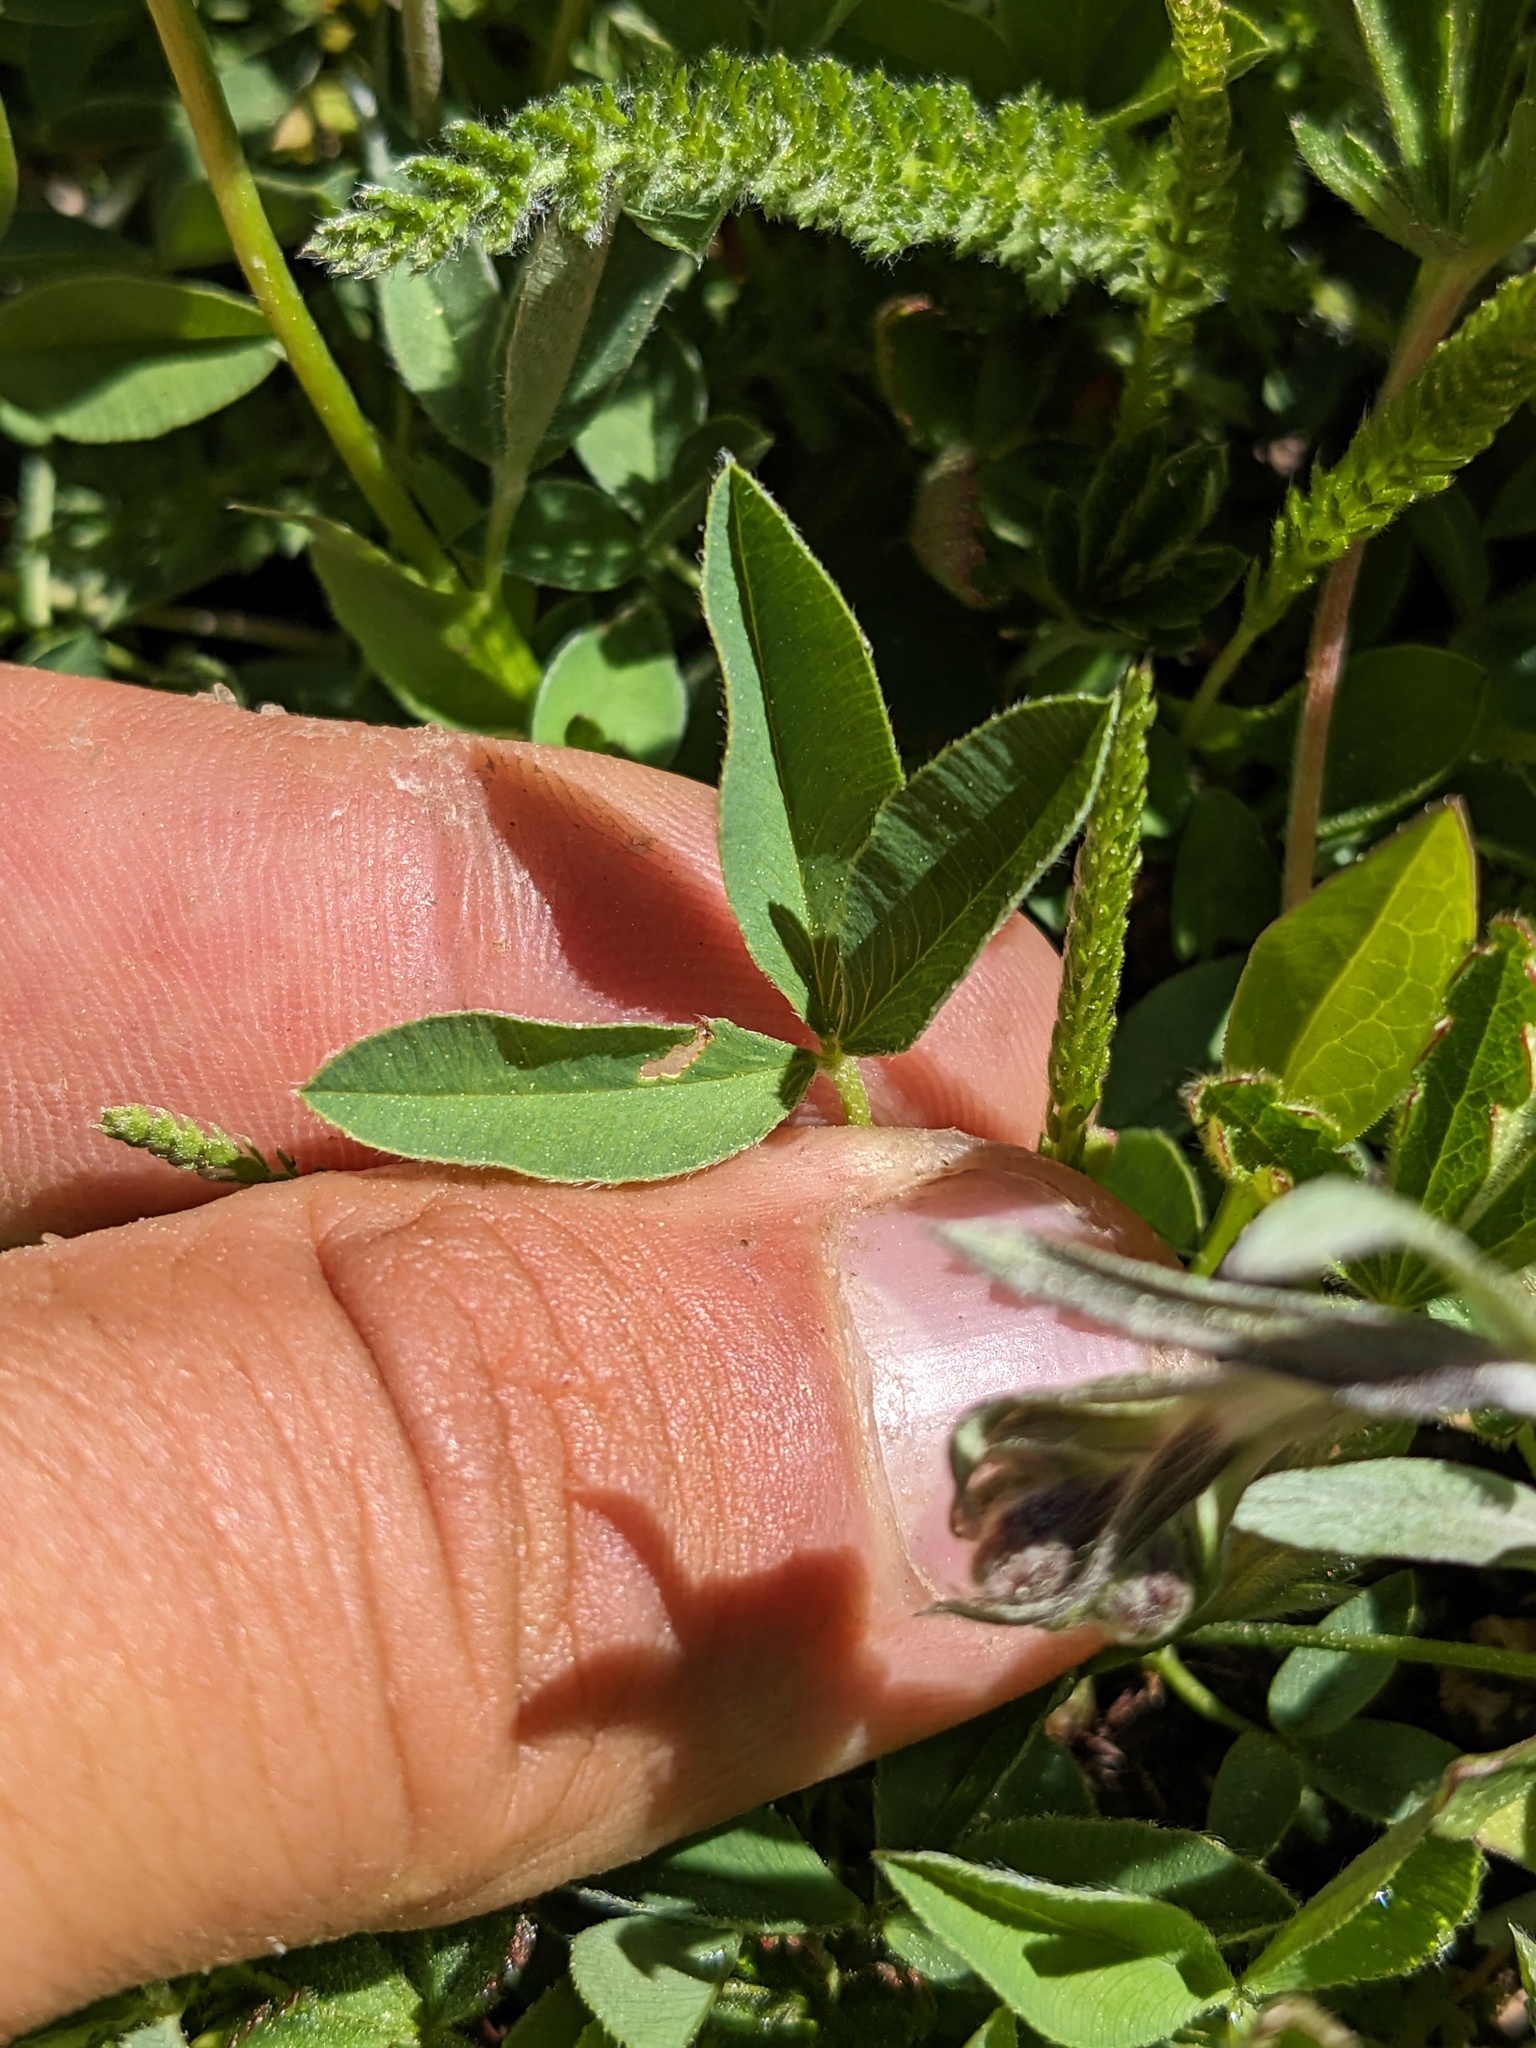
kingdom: Plantae
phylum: Tracheophyta
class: Magnoliopsida
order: Fabales
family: Fabaceae
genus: Trifolium
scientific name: Trifolium longipes
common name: Long-stalk clover
